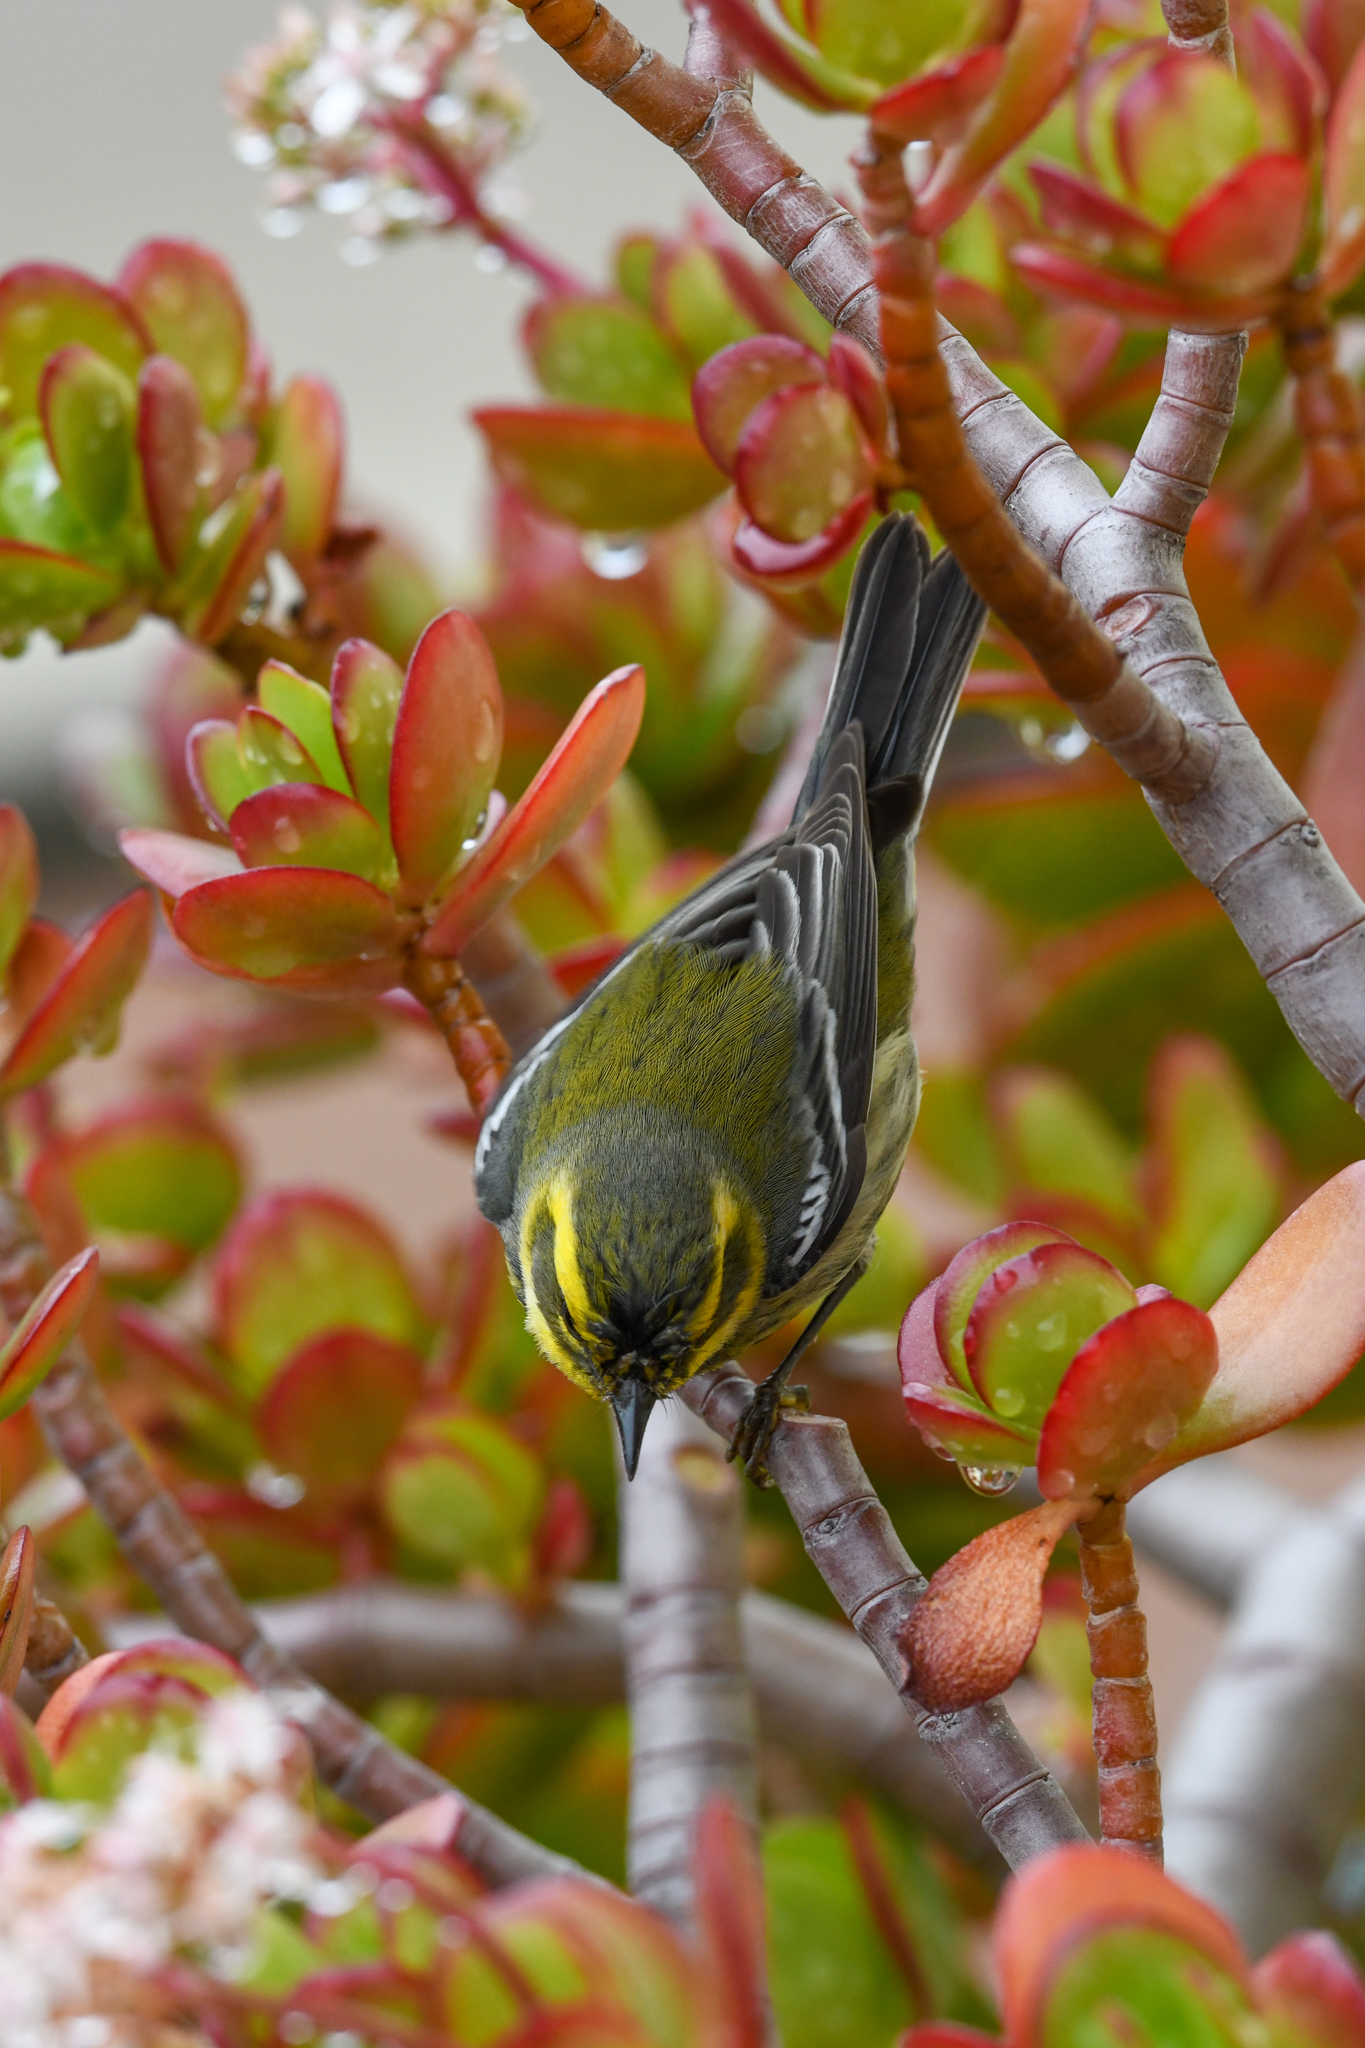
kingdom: Animalia
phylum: Chordata
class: Aves
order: Passeriformes
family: Parulidae
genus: Setophaga
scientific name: Setophaga townsendi
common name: Townsend's warbler
